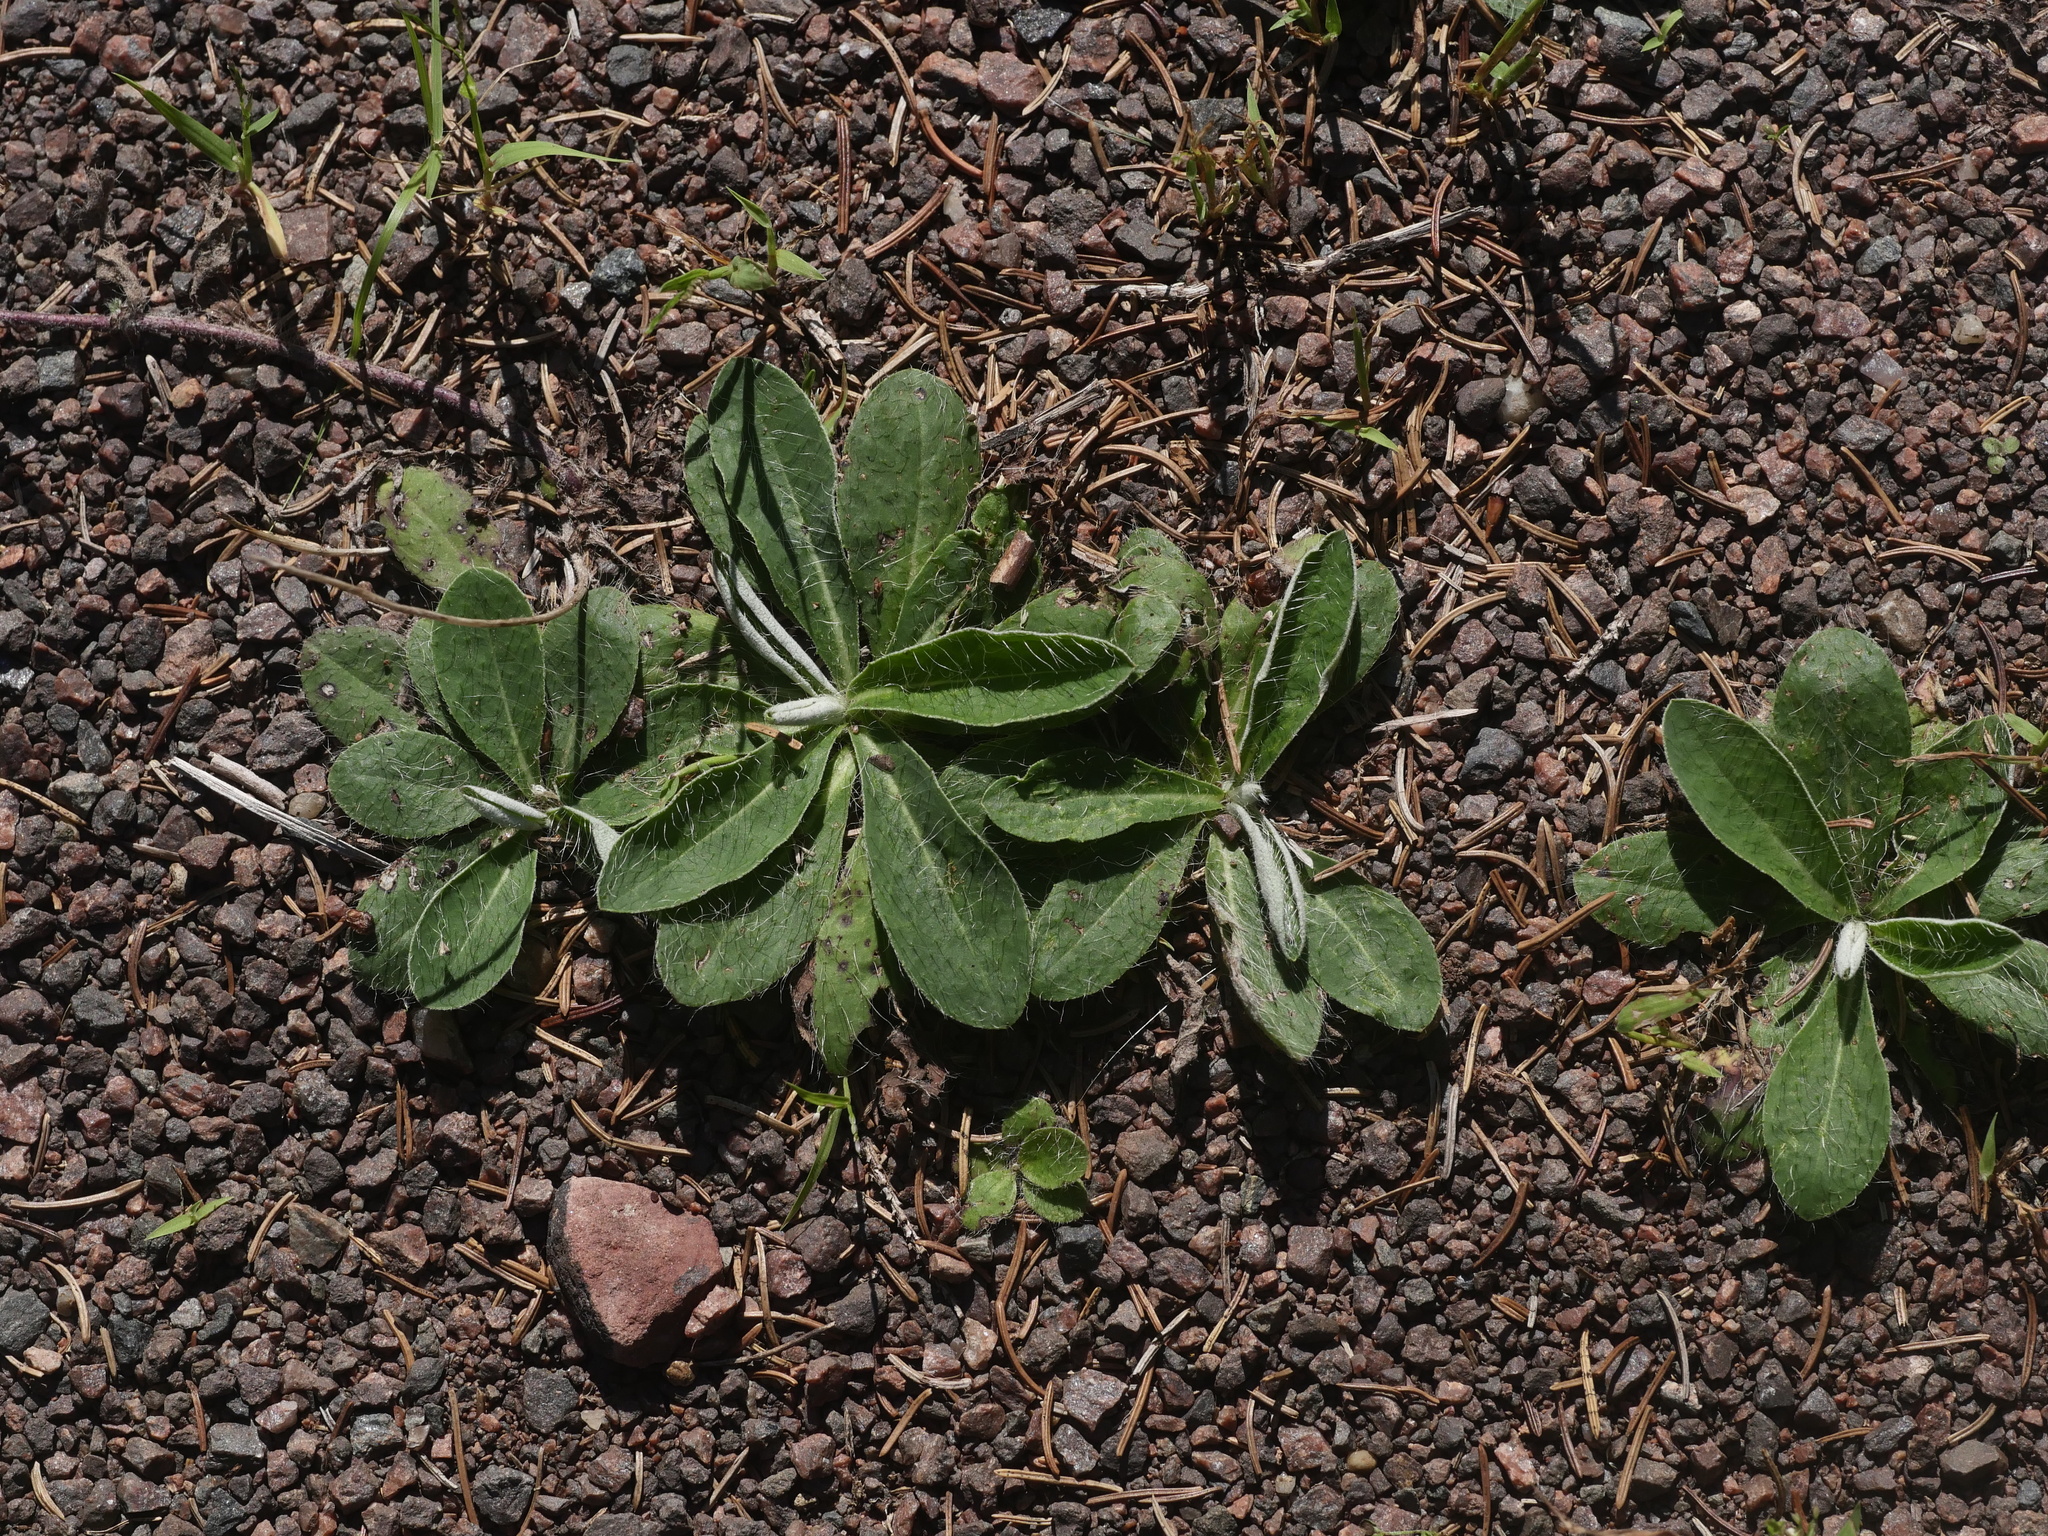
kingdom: Plantae
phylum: Tracheophyta
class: Magnoliopsida
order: Asterales
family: Asteraceae
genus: Pilosella
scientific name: Pilosella officinarum
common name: Mouse-ear hawkweed
